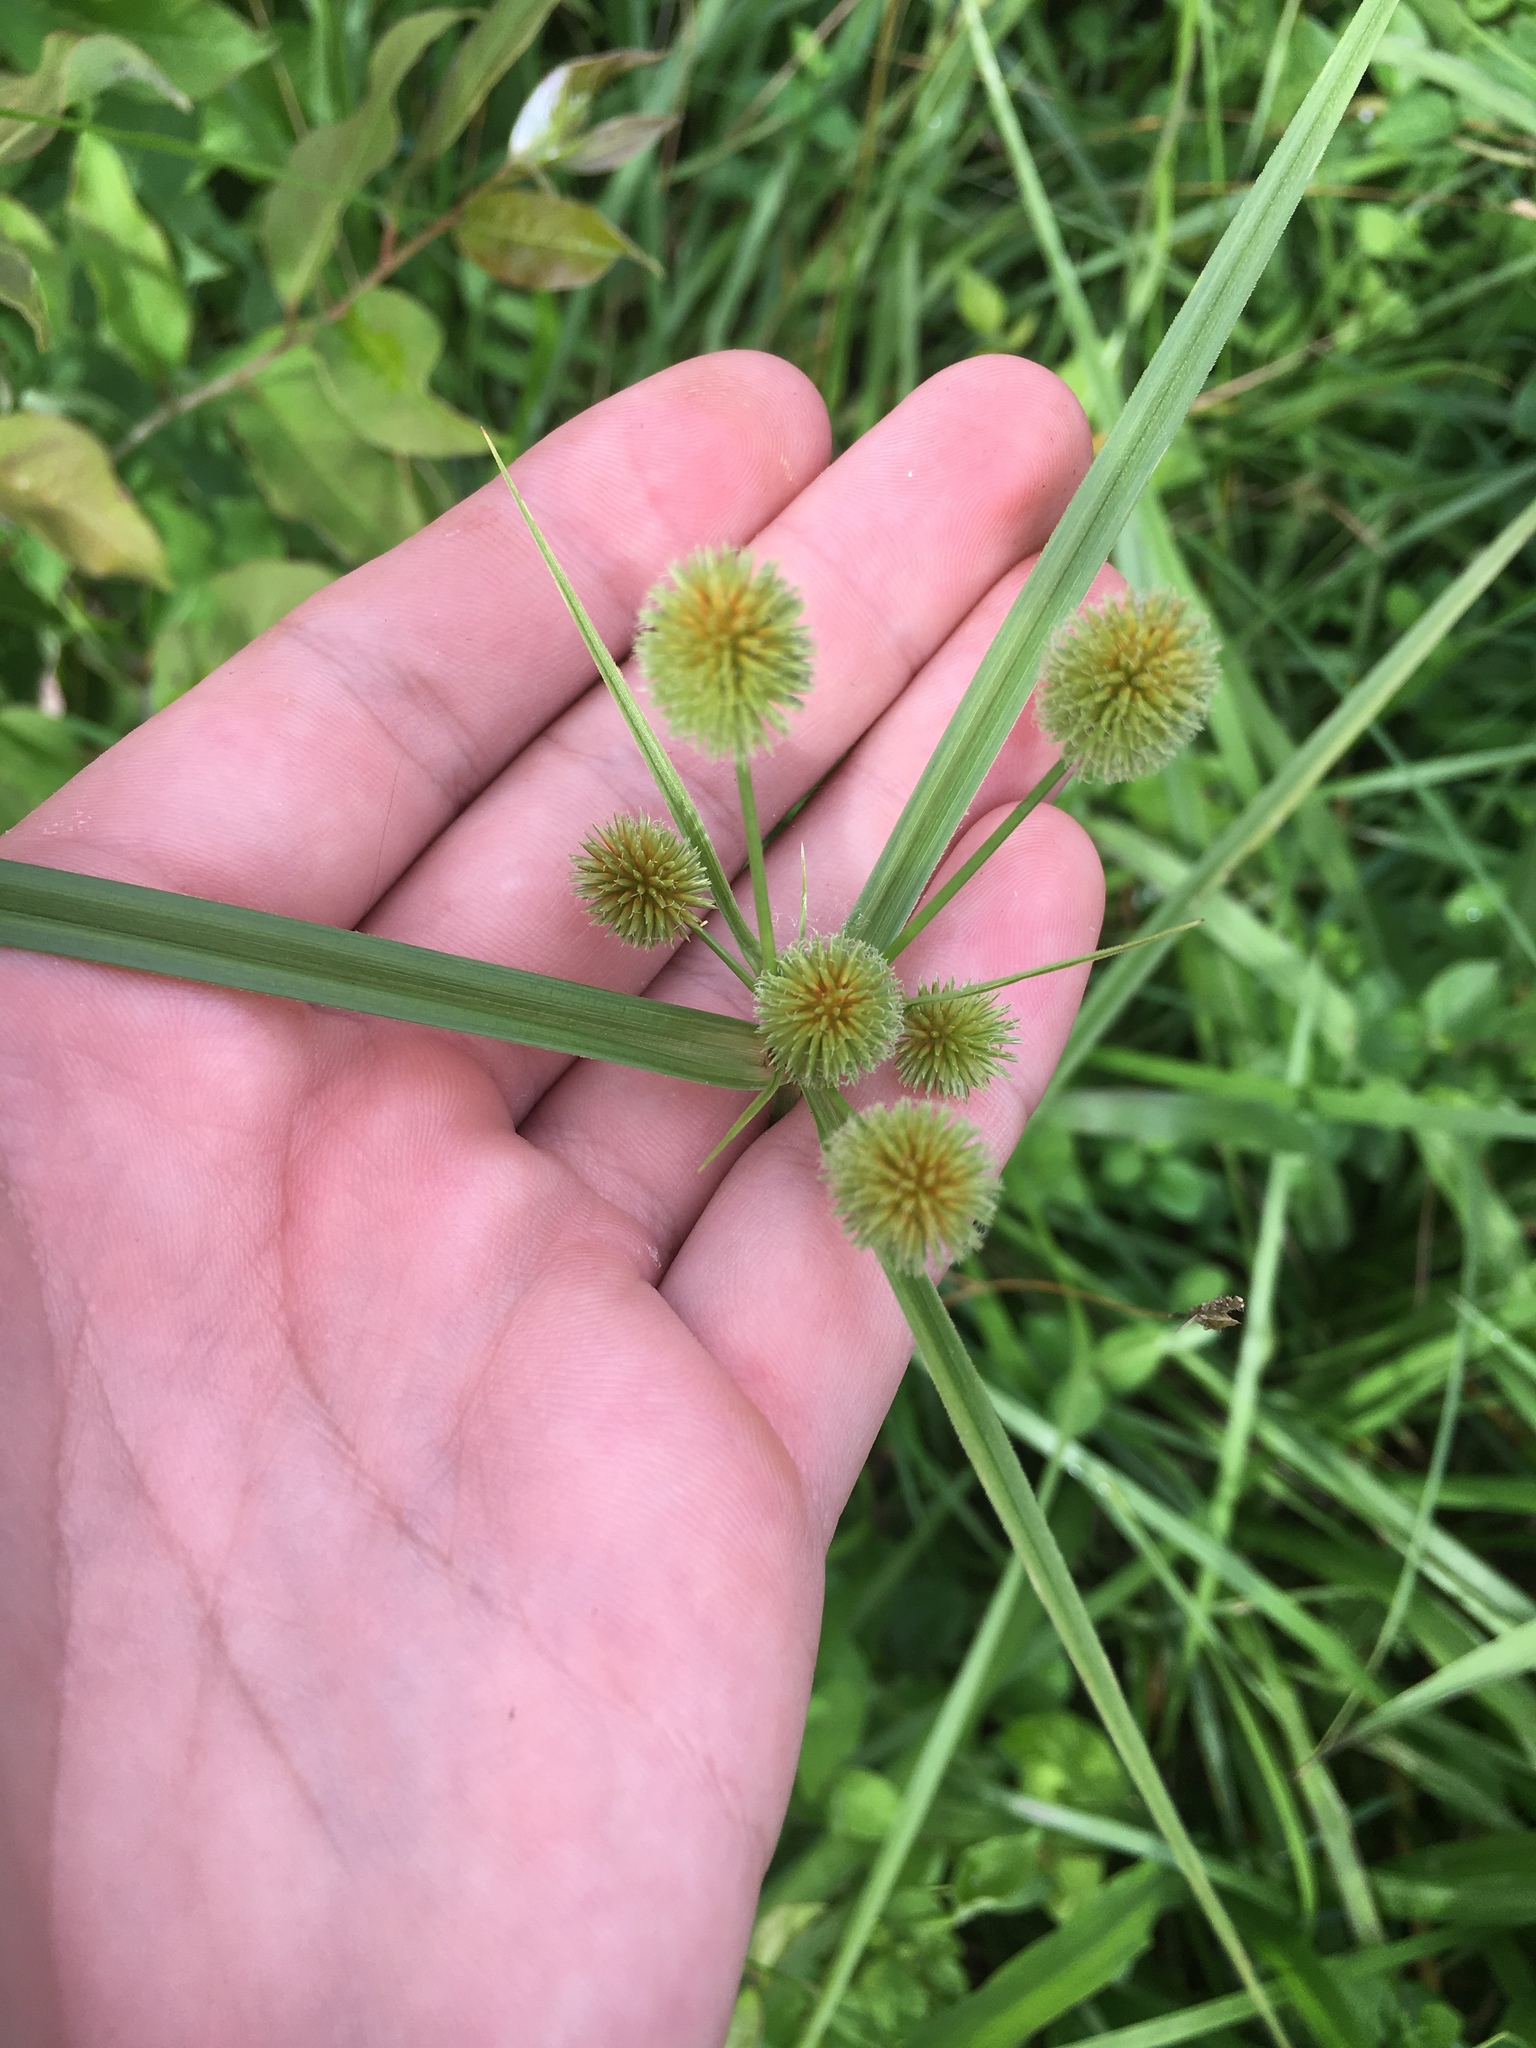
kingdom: Plantae
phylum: Tracheophyta
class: Liliopsida
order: Poales
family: Cyperaceae
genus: Cyperus
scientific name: Cyperus echinatus
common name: Teasel sedge
